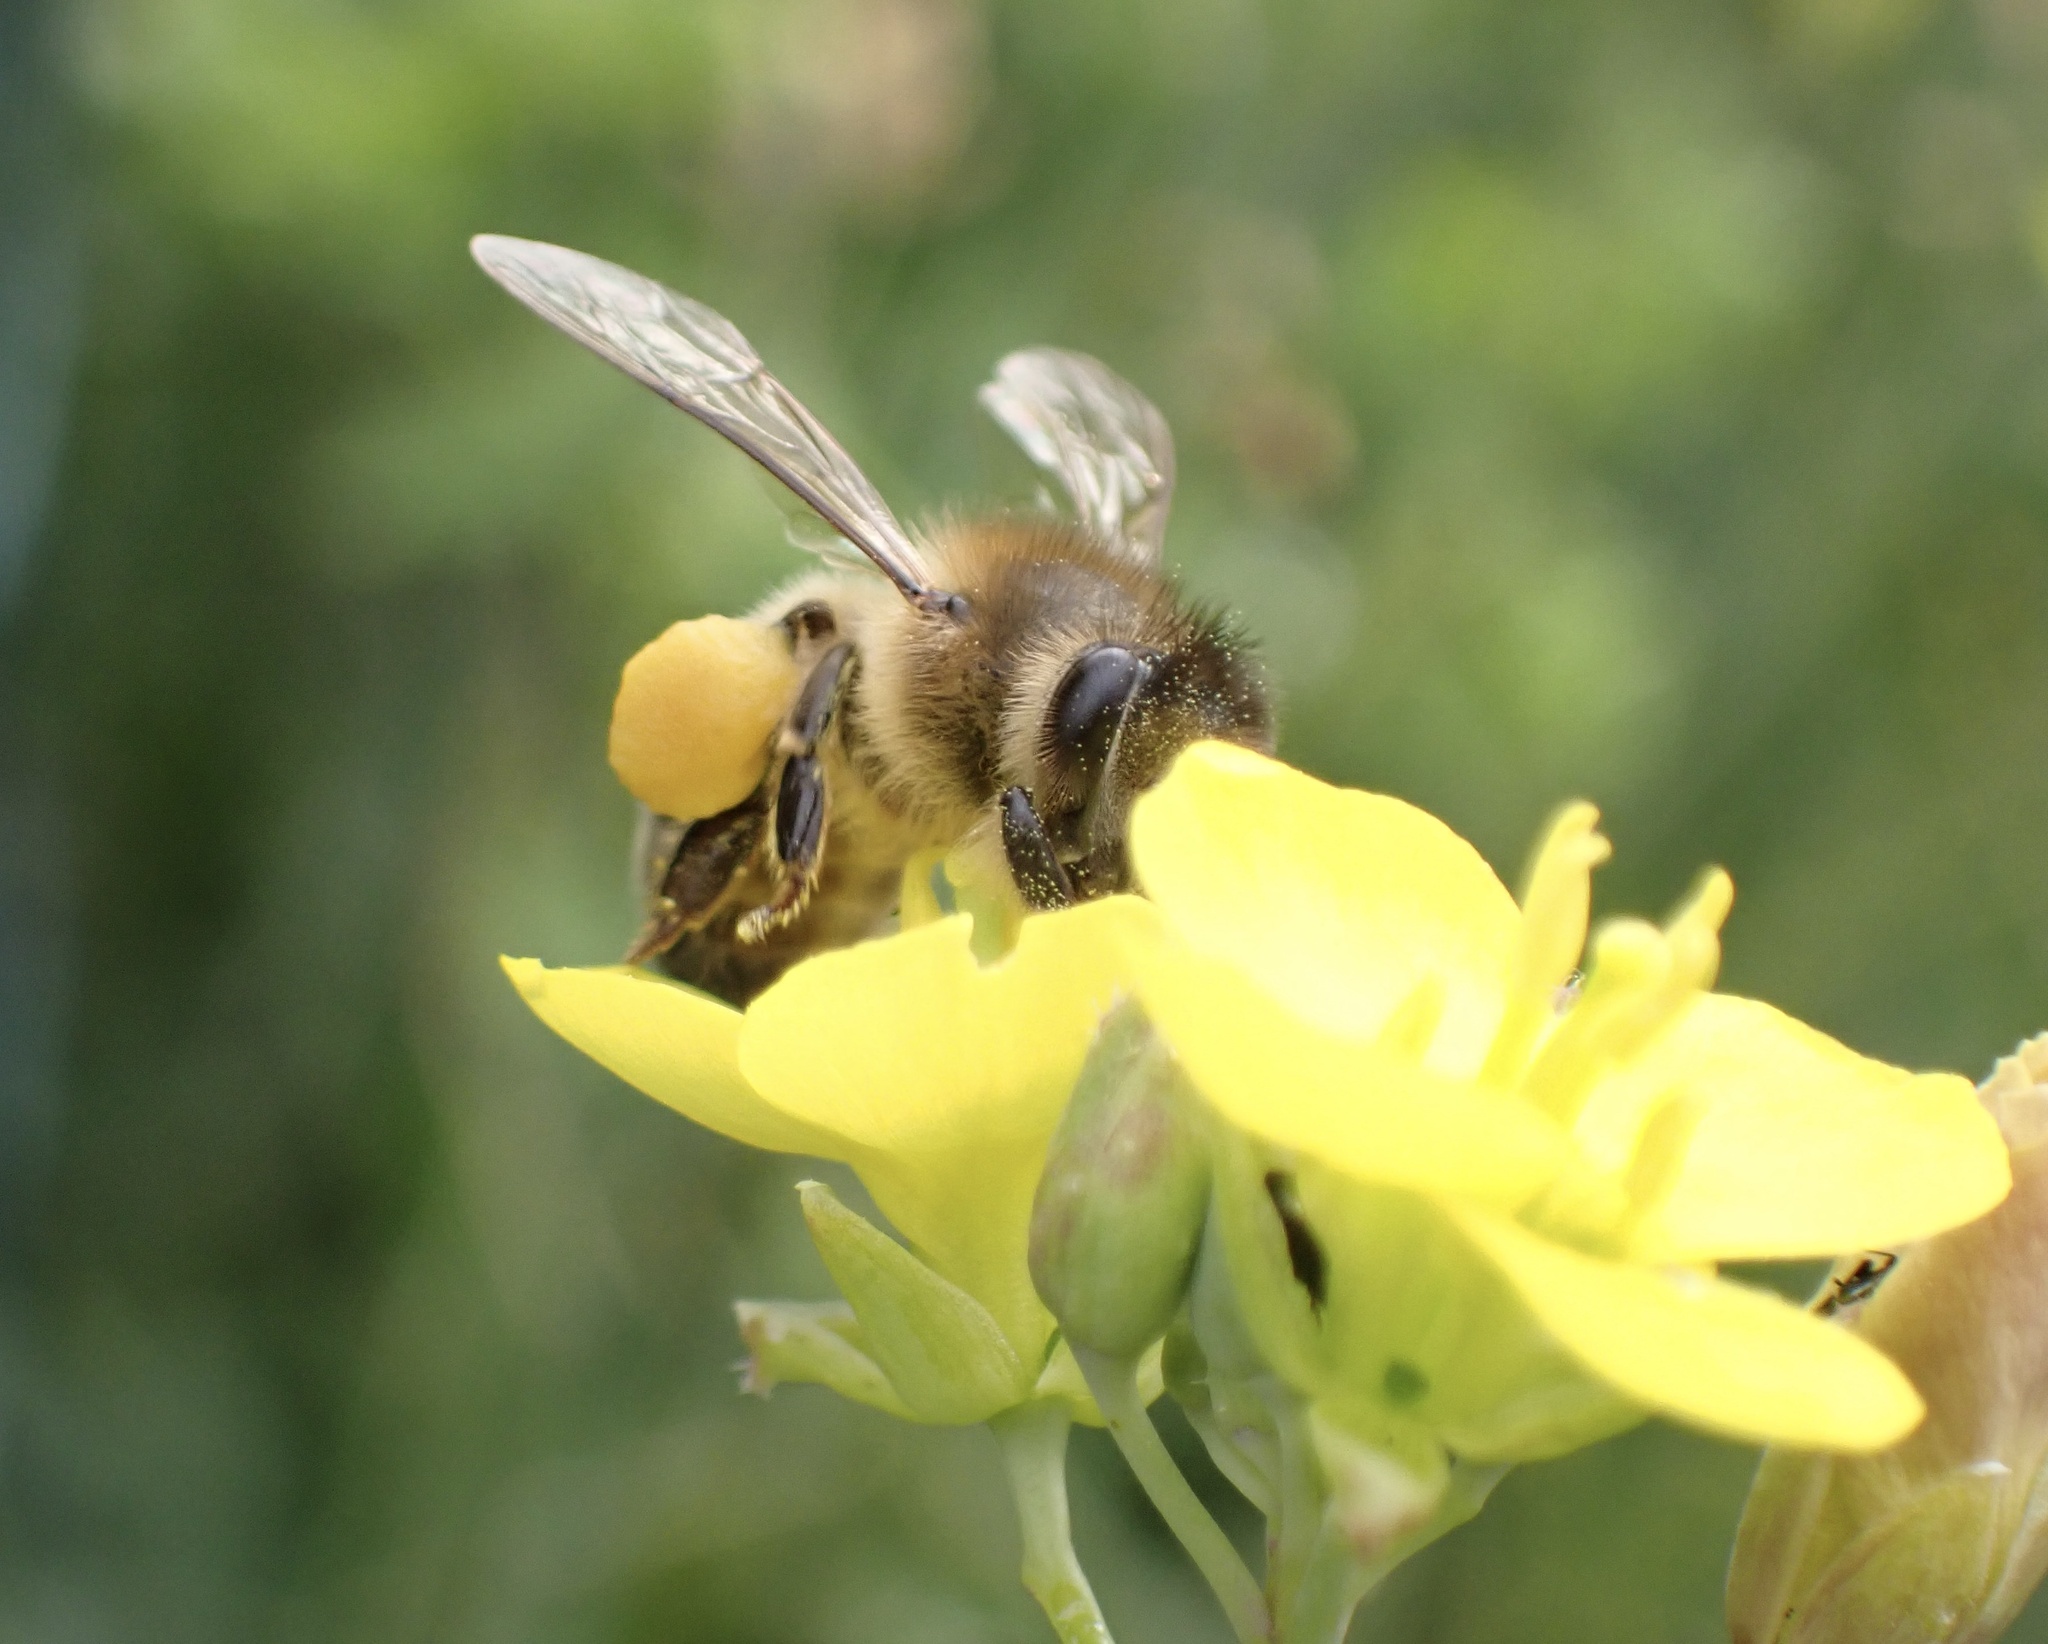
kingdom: Animalia
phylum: Arthropoda
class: Insecta
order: Hymenoptera
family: Apidae
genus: Apis
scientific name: Apis mellifera
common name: Honey bee
